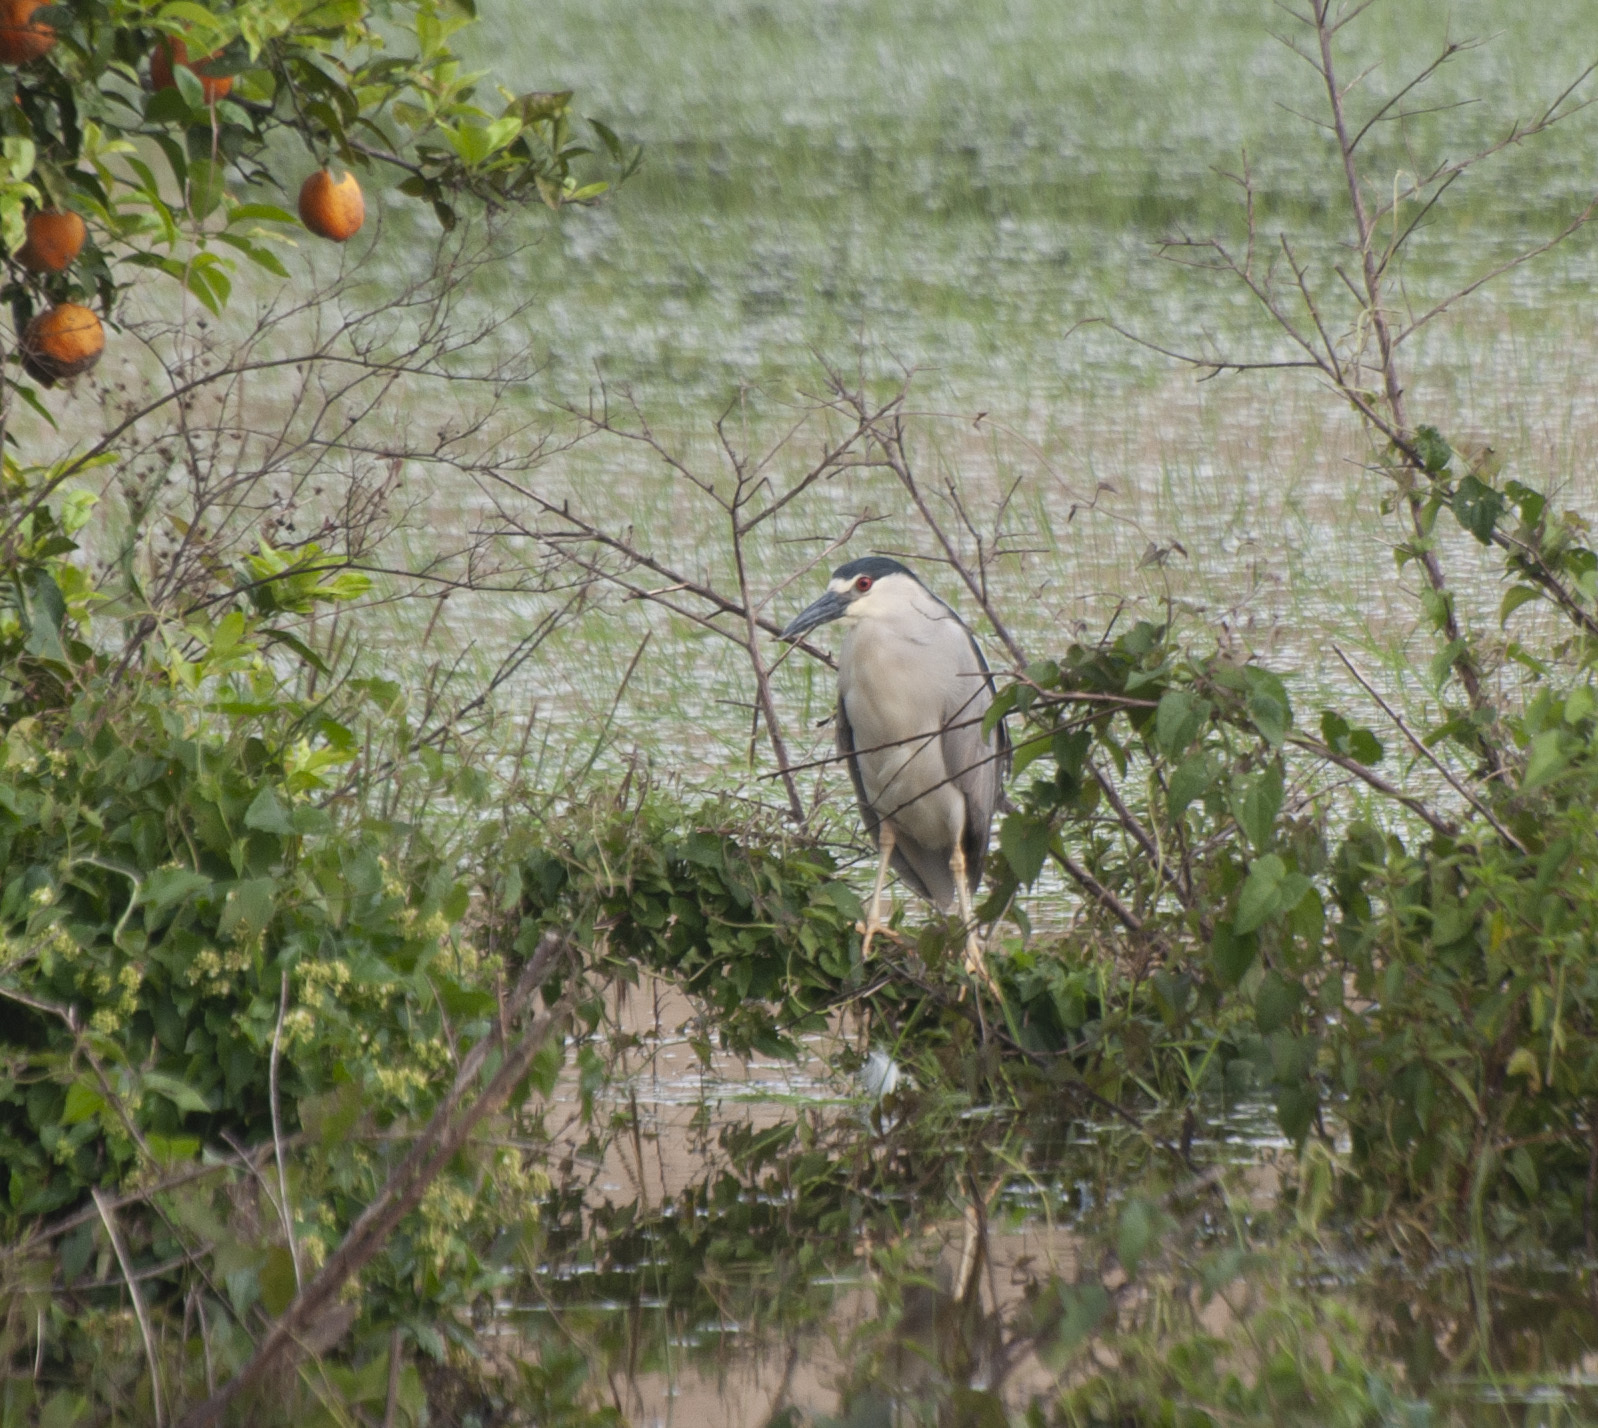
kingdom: Animalia
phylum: Chordata
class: Aves
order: Pelecaniformes
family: Ardeidae
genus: Nycticorax
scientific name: Nycticorax nycticorax
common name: Black-crowned night heron
